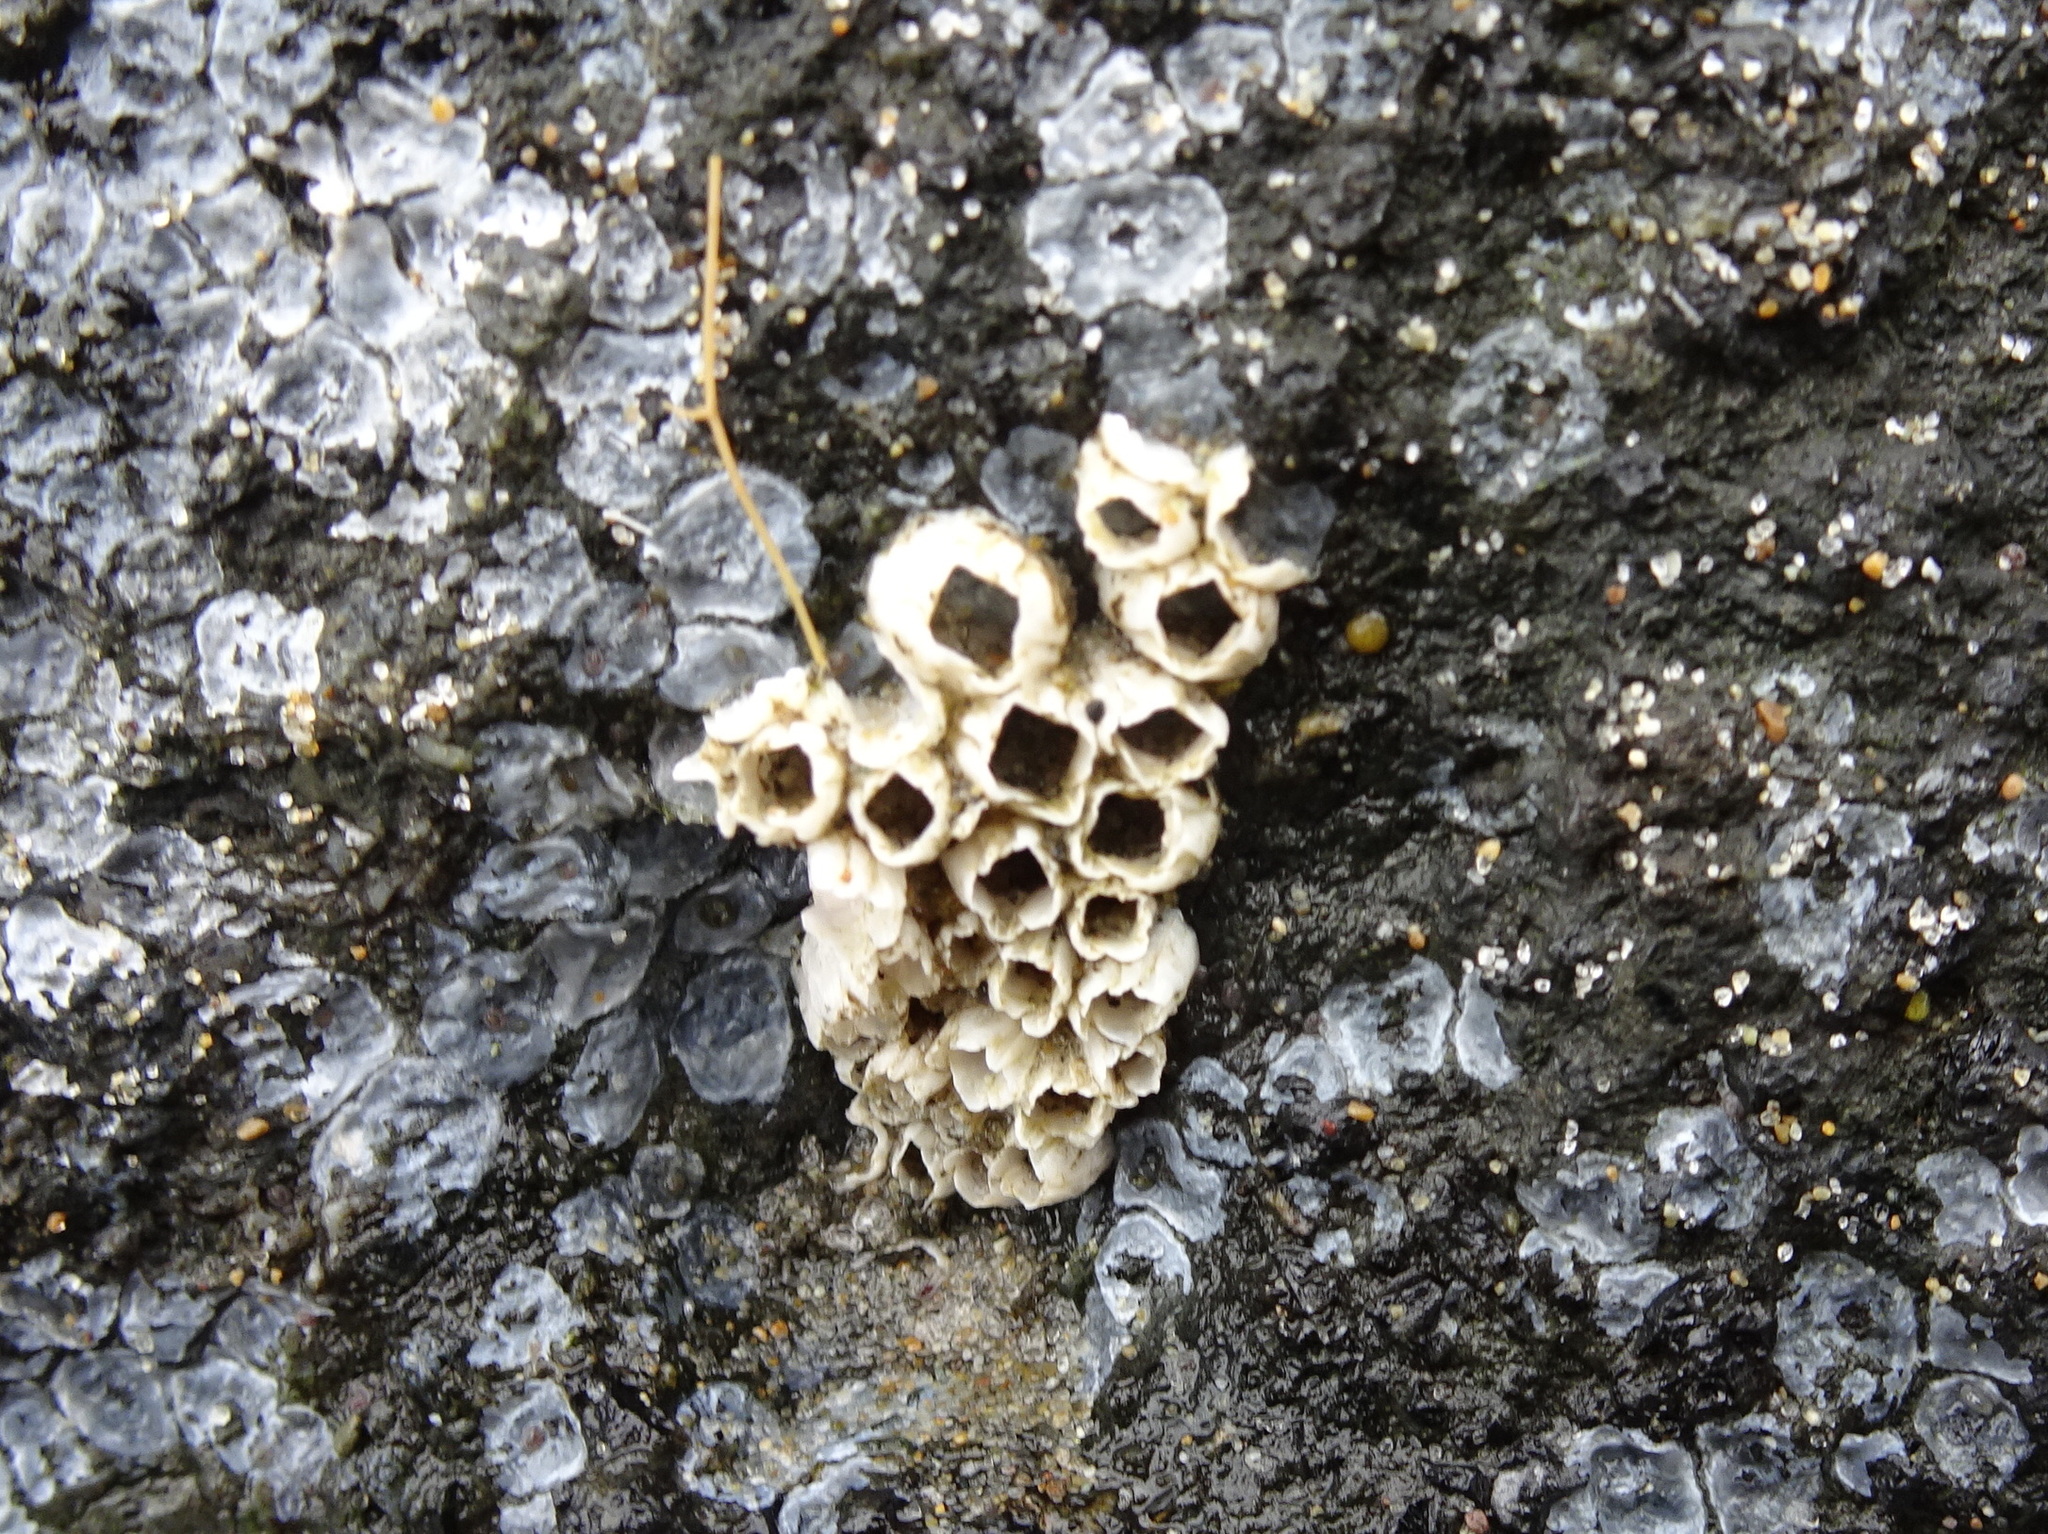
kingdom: Animalia
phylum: Arthropoda
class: Maxillopoda
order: Sessilia
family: Balanidae
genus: Balanus
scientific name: Balanus glandula
